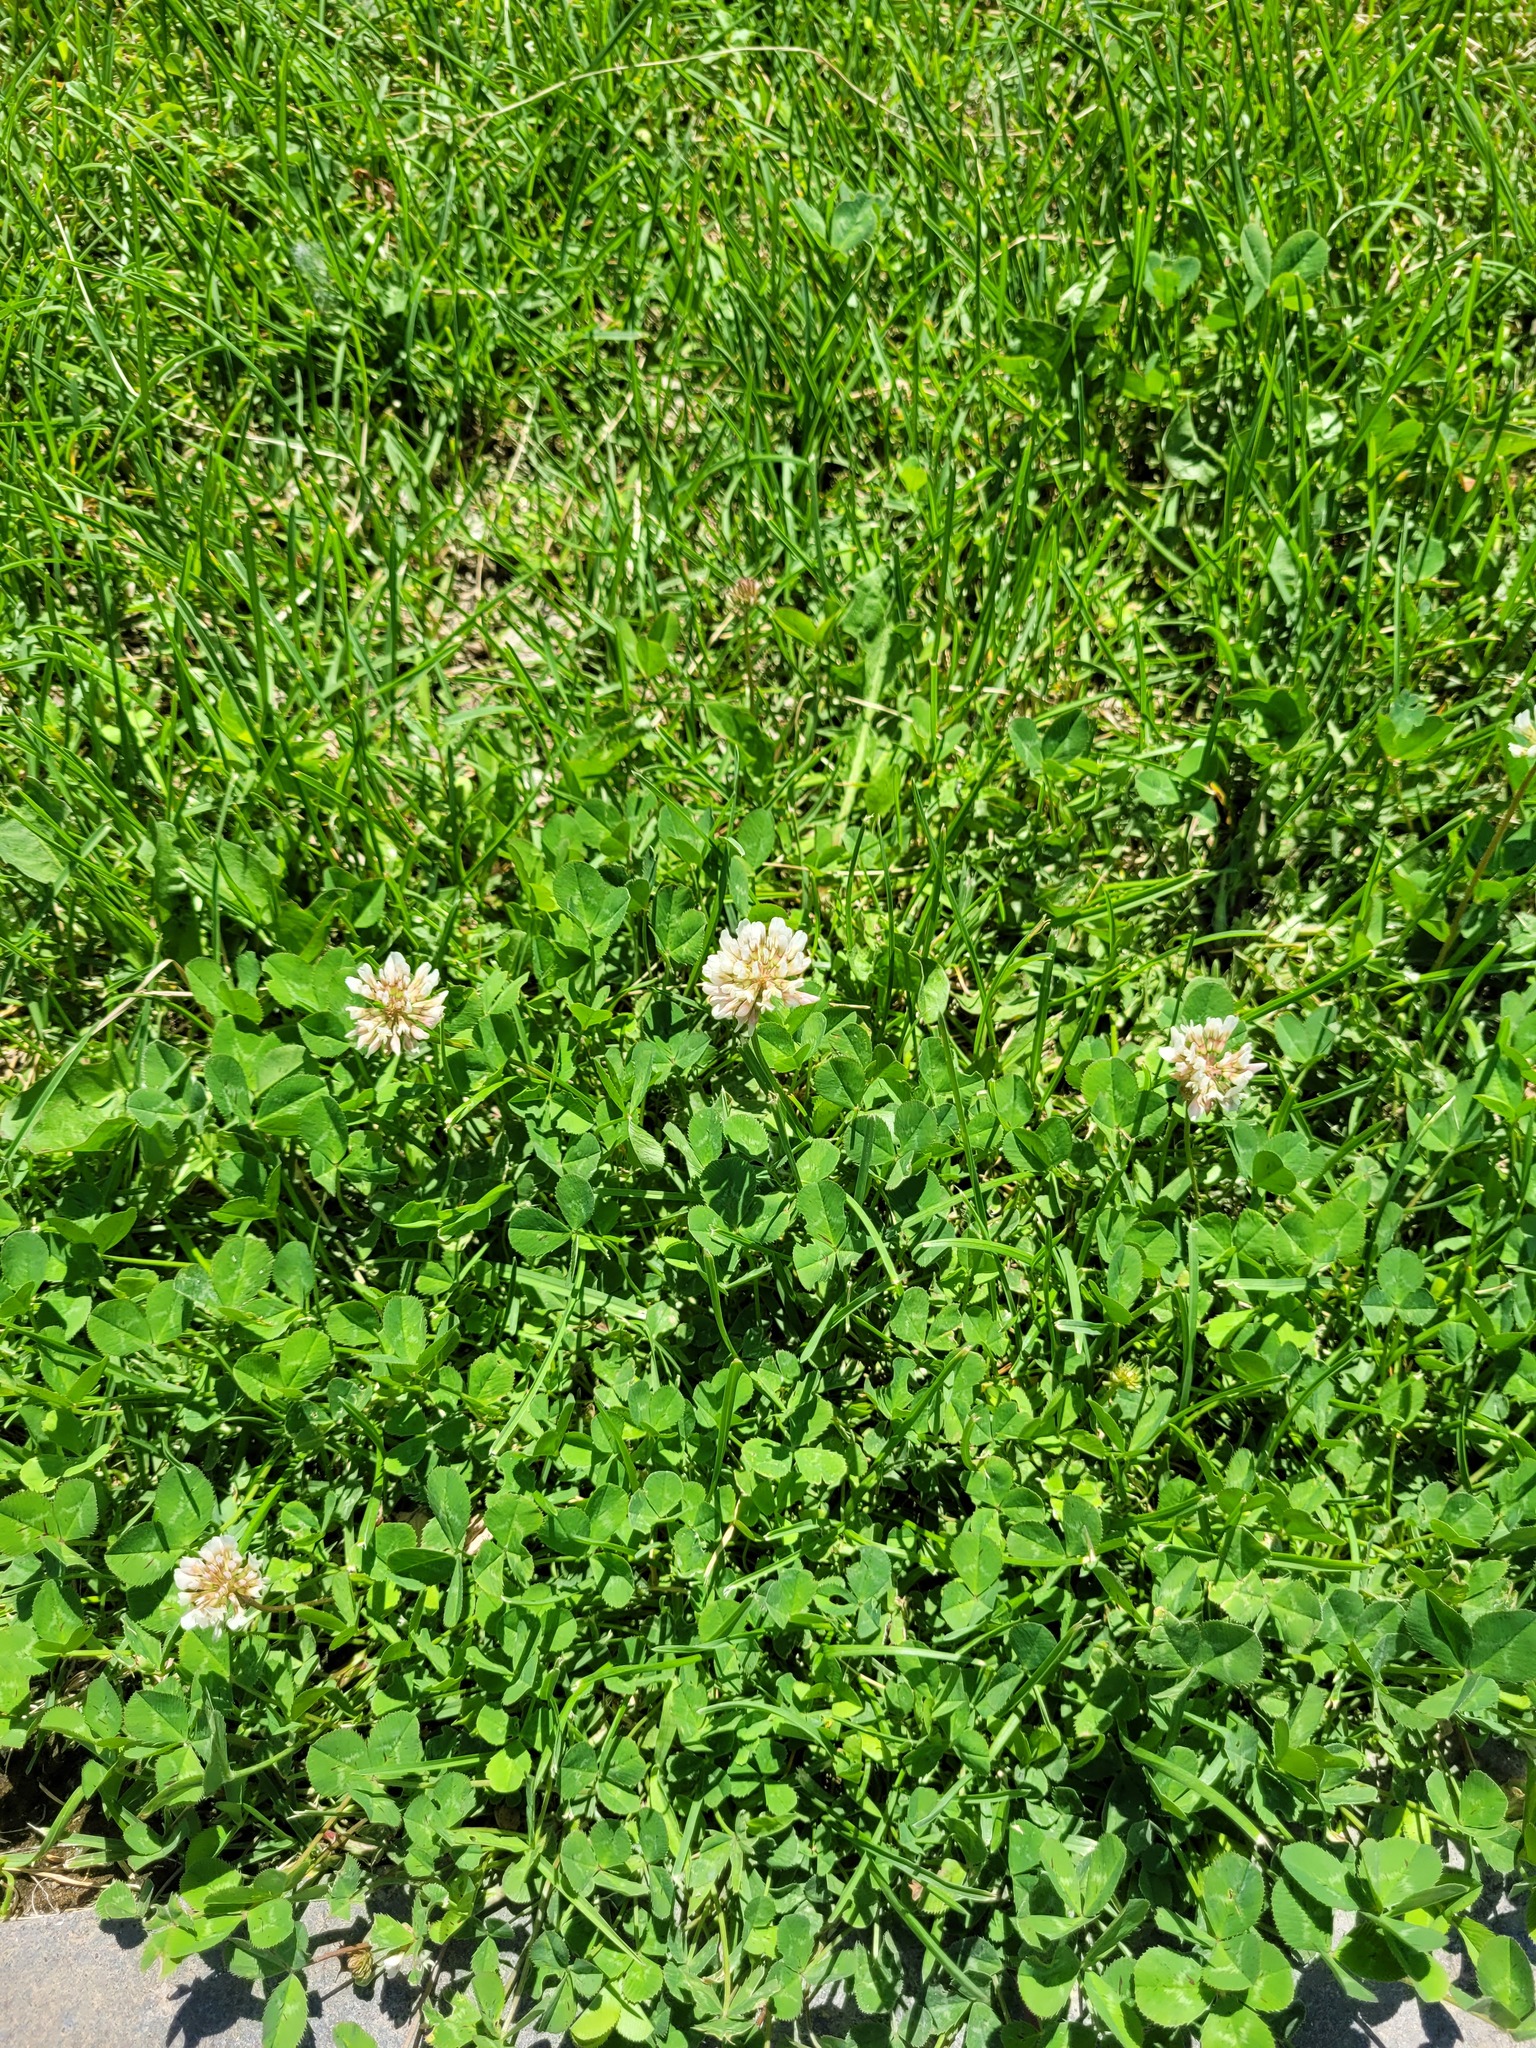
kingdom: Plantae
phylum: Tracheophyta
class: Magnoliopsida
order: Fabales
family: Fabaceae
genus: Trifolium
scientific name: Trifolium repens
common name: White clover
